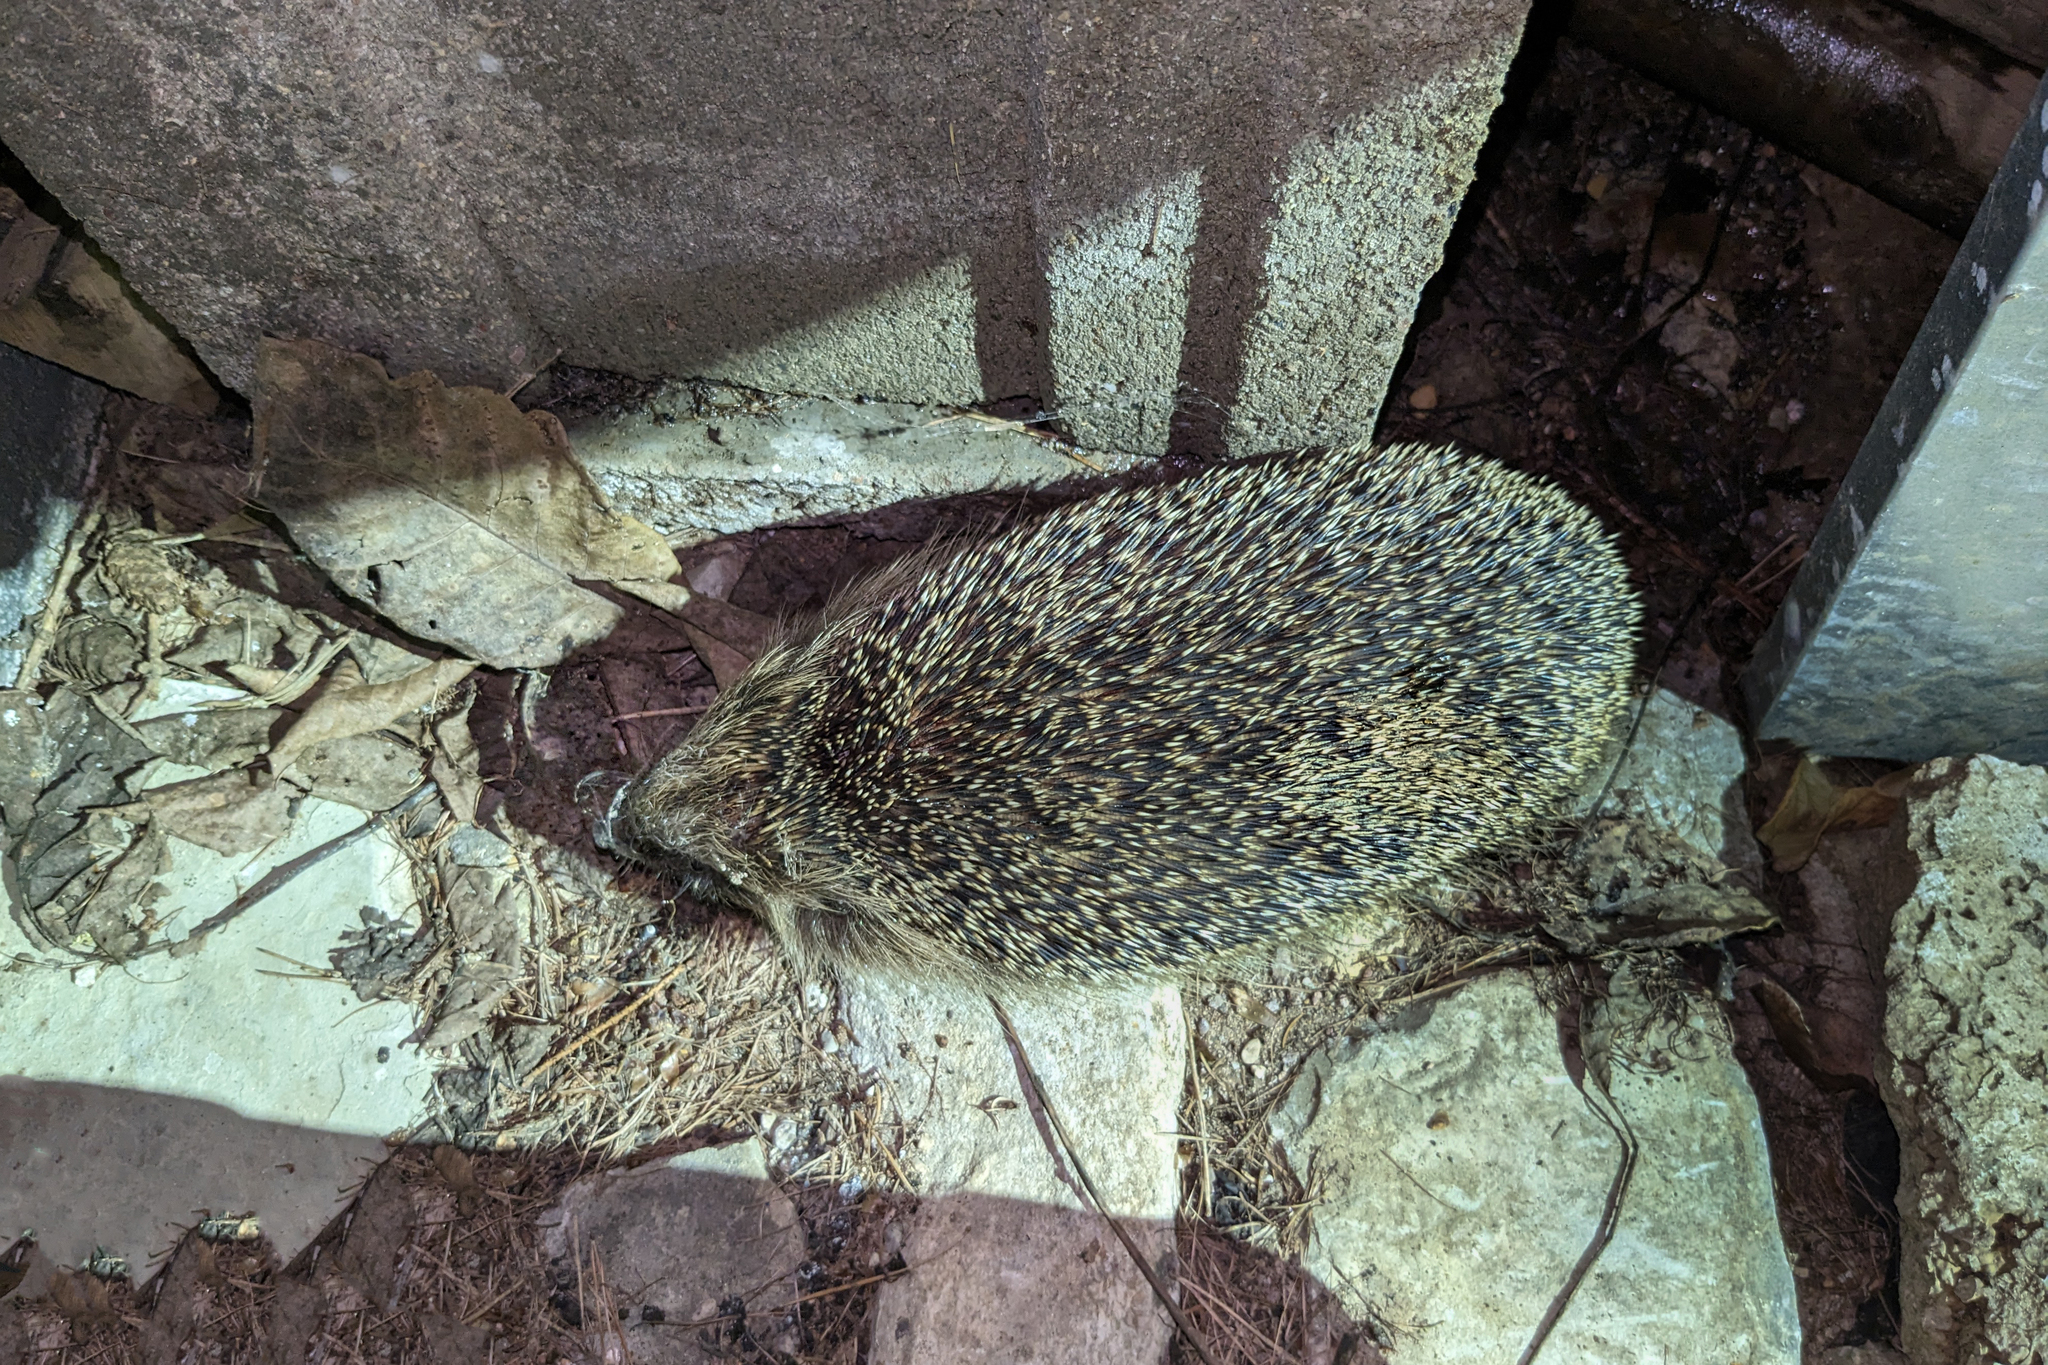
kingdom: Animalia
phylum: Chordata
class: Mammalia
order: Erinaceomorpha
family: Erinaceidae
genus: Erinaceus
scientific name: Erinaceus europaeus
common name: West european hedgehog
